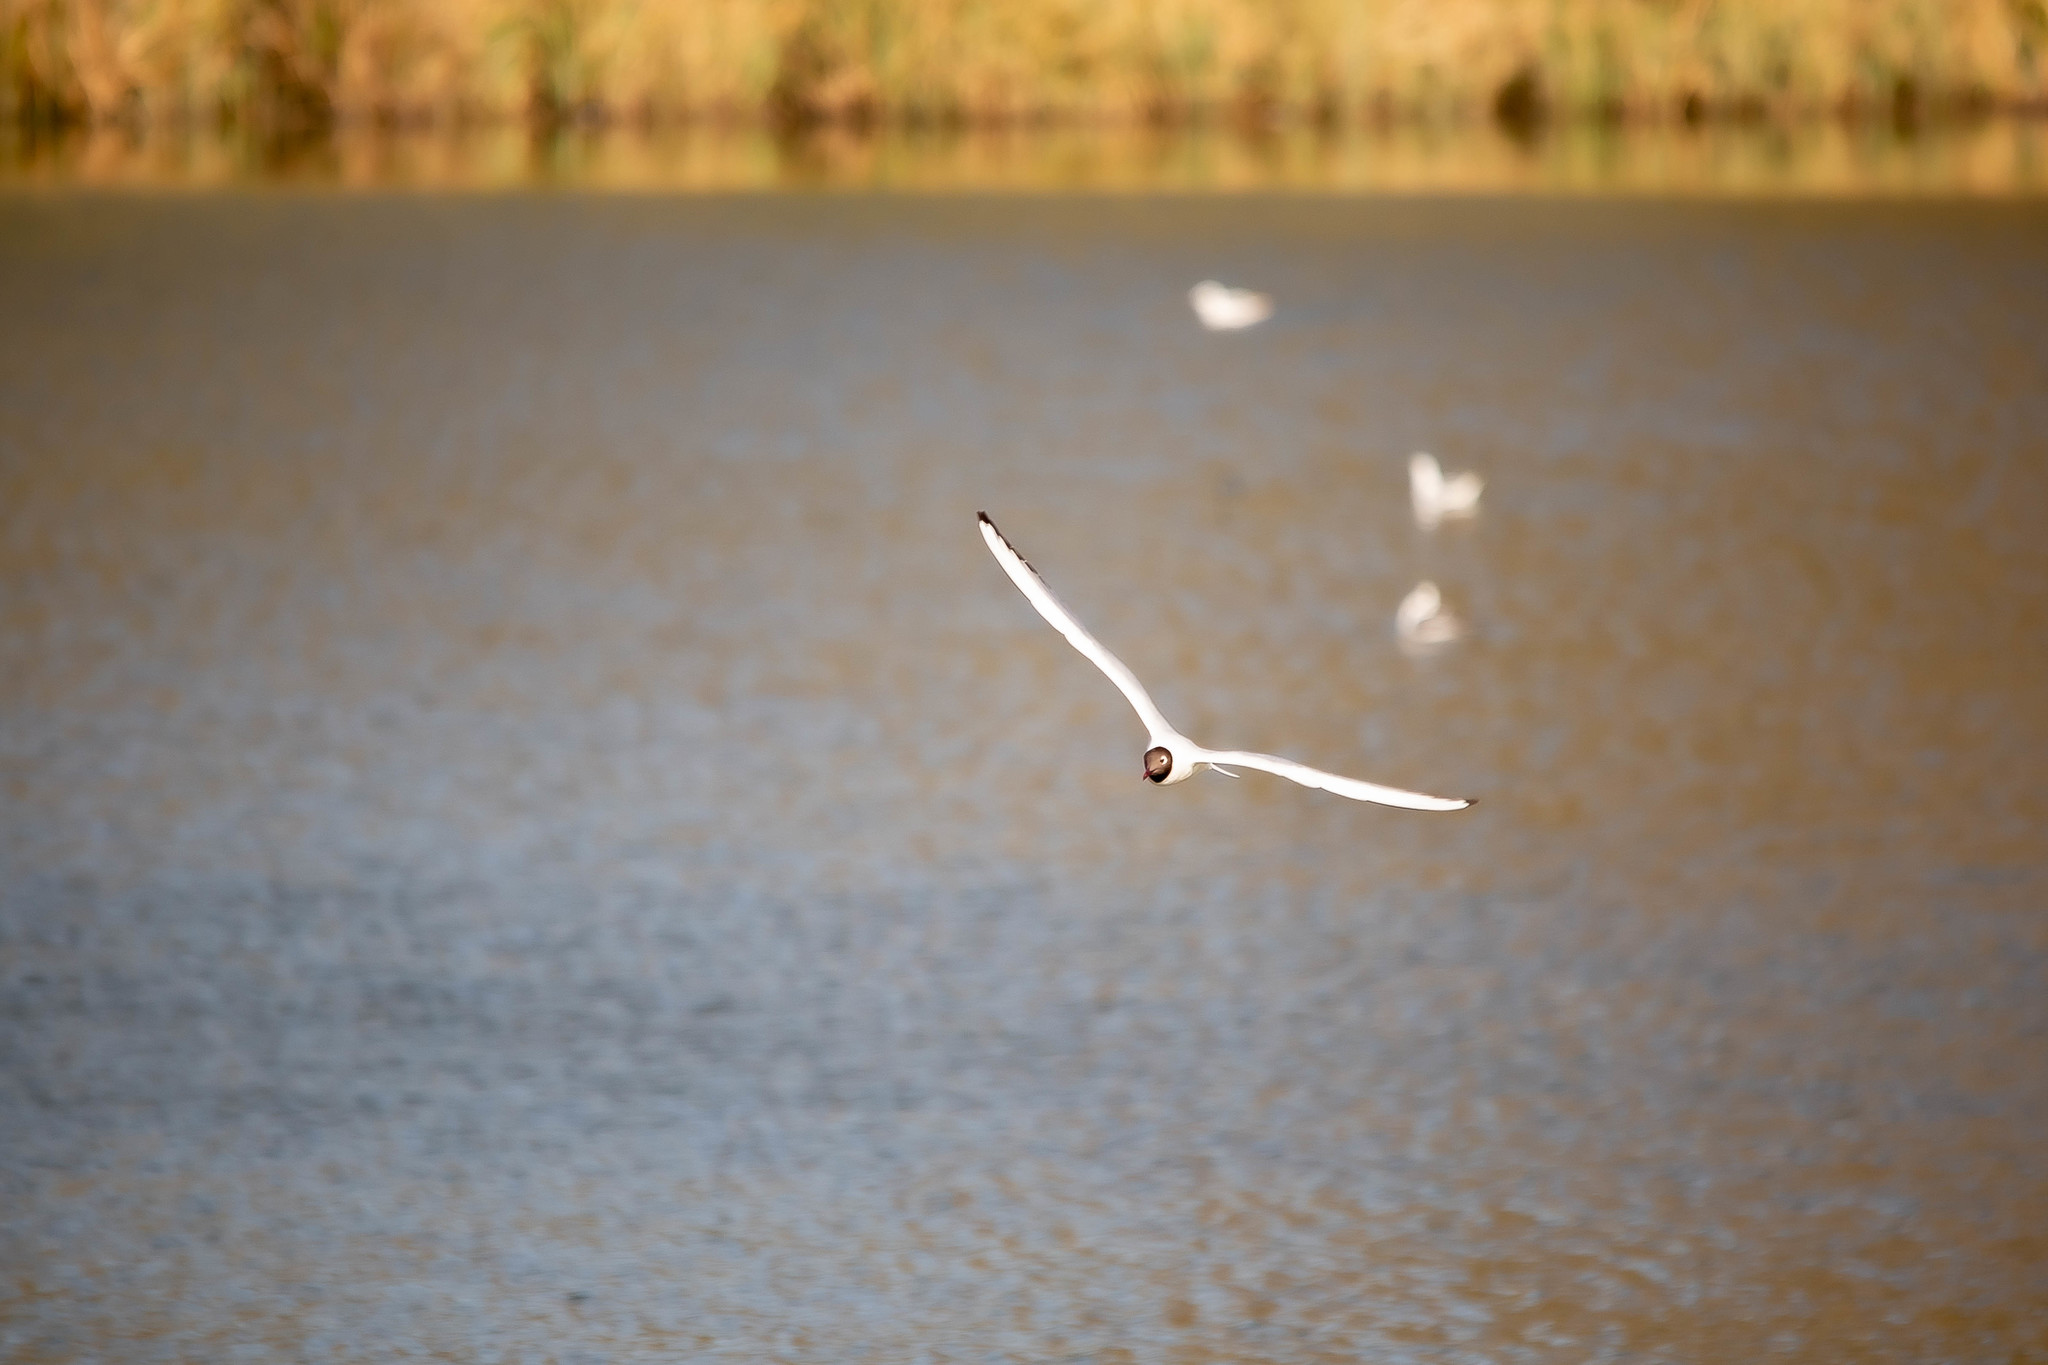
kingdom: Animalia
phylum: Chordata
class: Aves
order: Charadriiformes
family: Laridae
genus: Chroicocephalus
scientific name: Chroicocephalus ridibundus
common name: Black-headed gull
